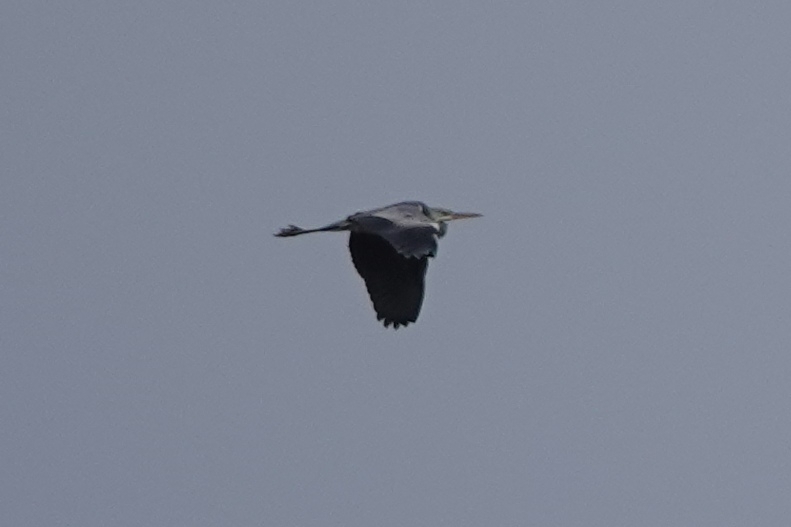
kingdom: Animalia
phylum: Chordata
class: Aves
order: Pelecaniformes
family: Ardeidae
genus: Ardea
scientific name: Ardea cinerea
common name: Grey heron
